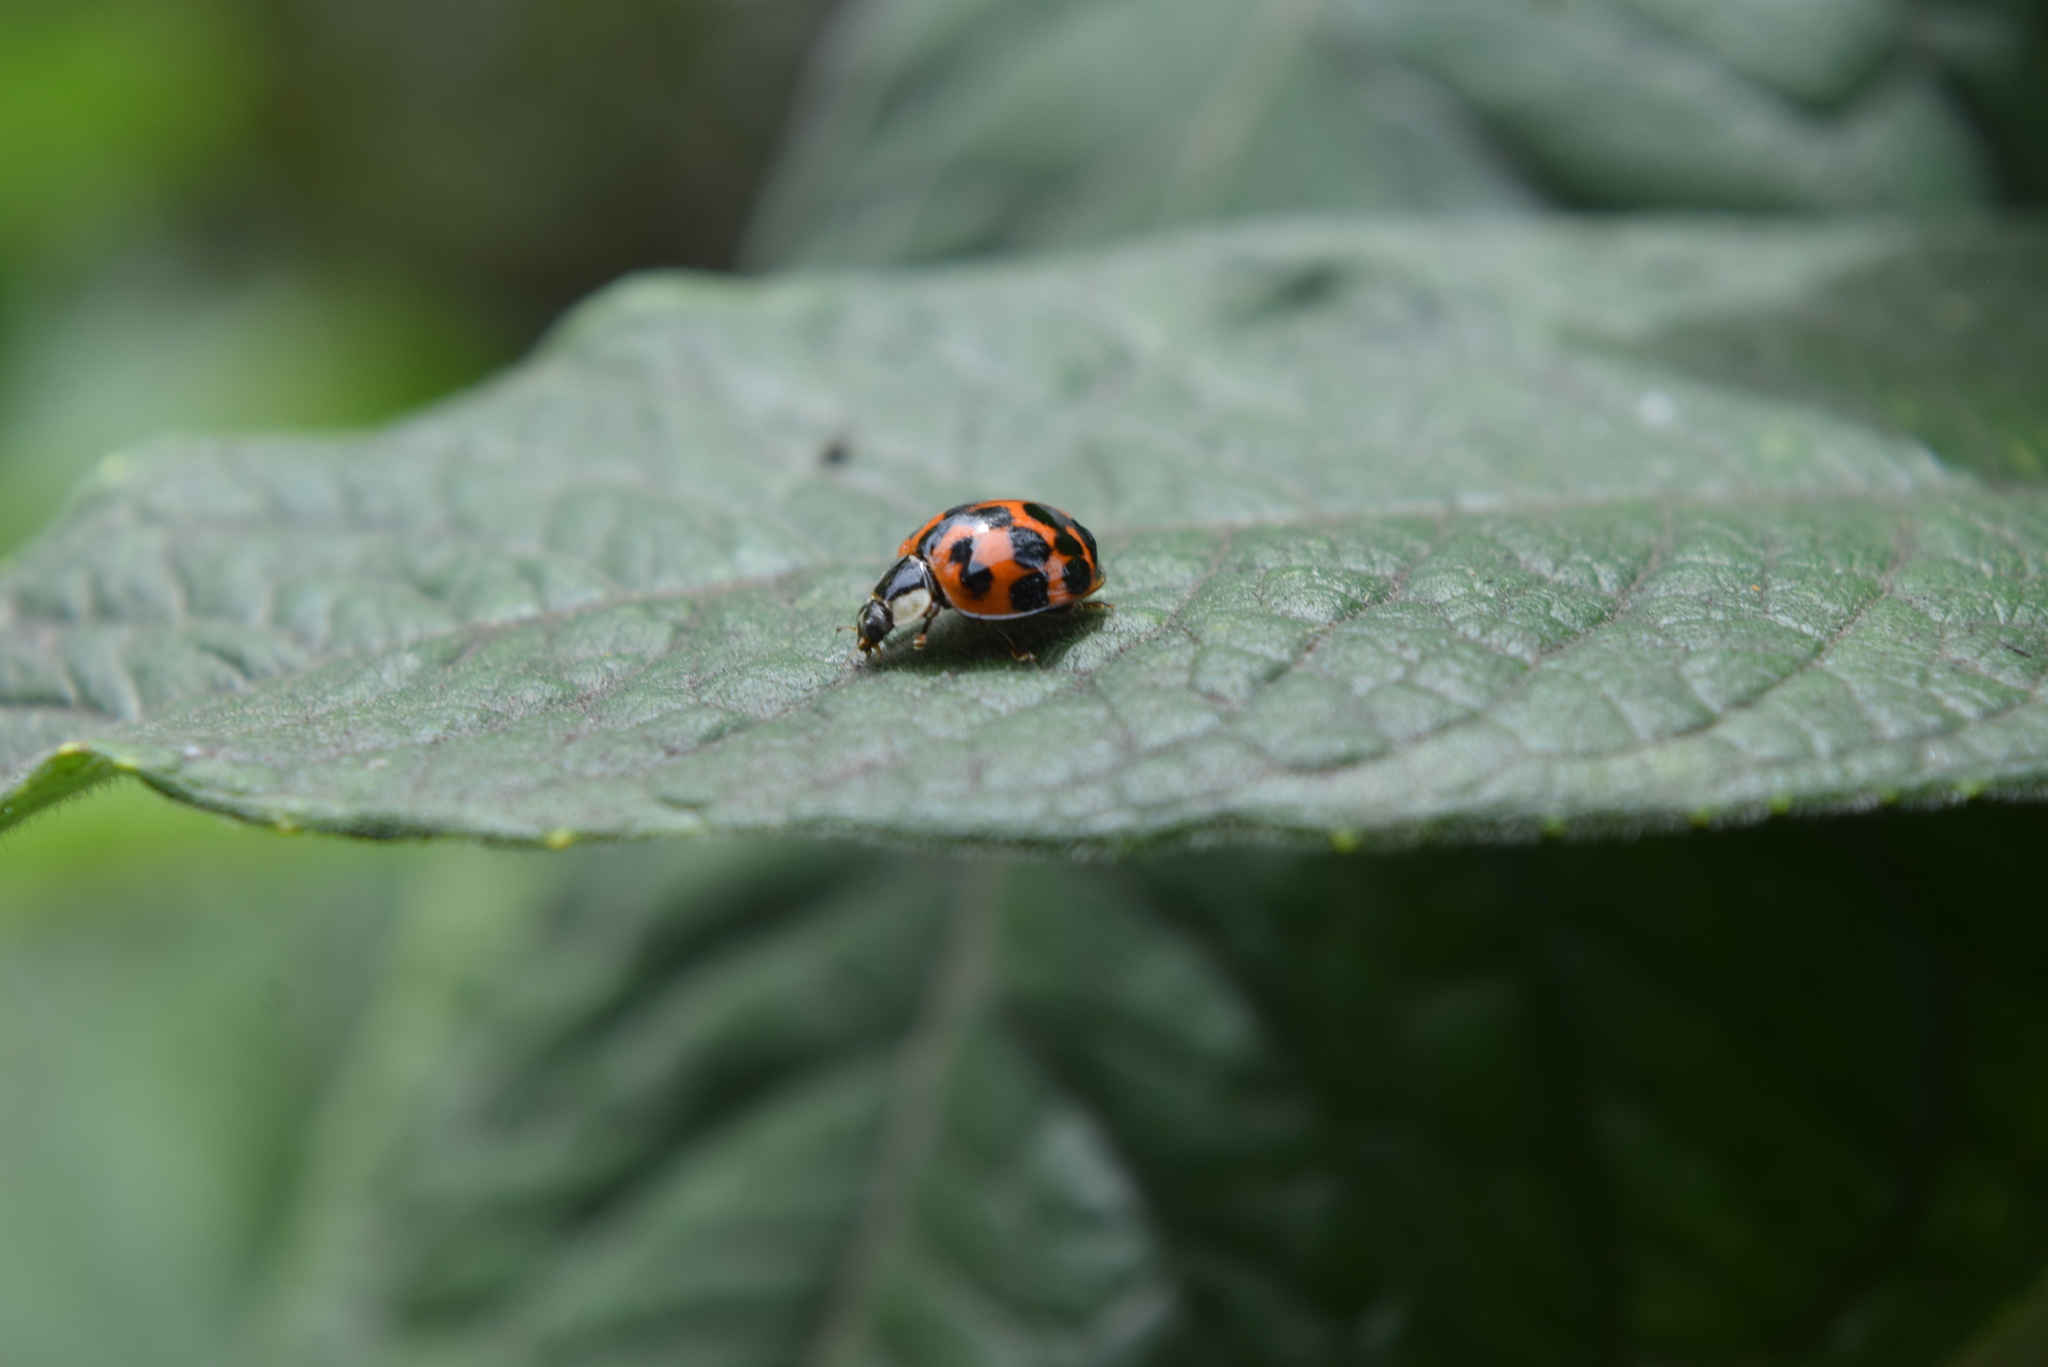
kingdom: Animalia
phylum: Arthropoda
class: Insecta
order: Coleoptera
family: Coccinellidae
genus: Harmonia
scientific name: Harmonia axyridis
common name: Harlequin ladybird
